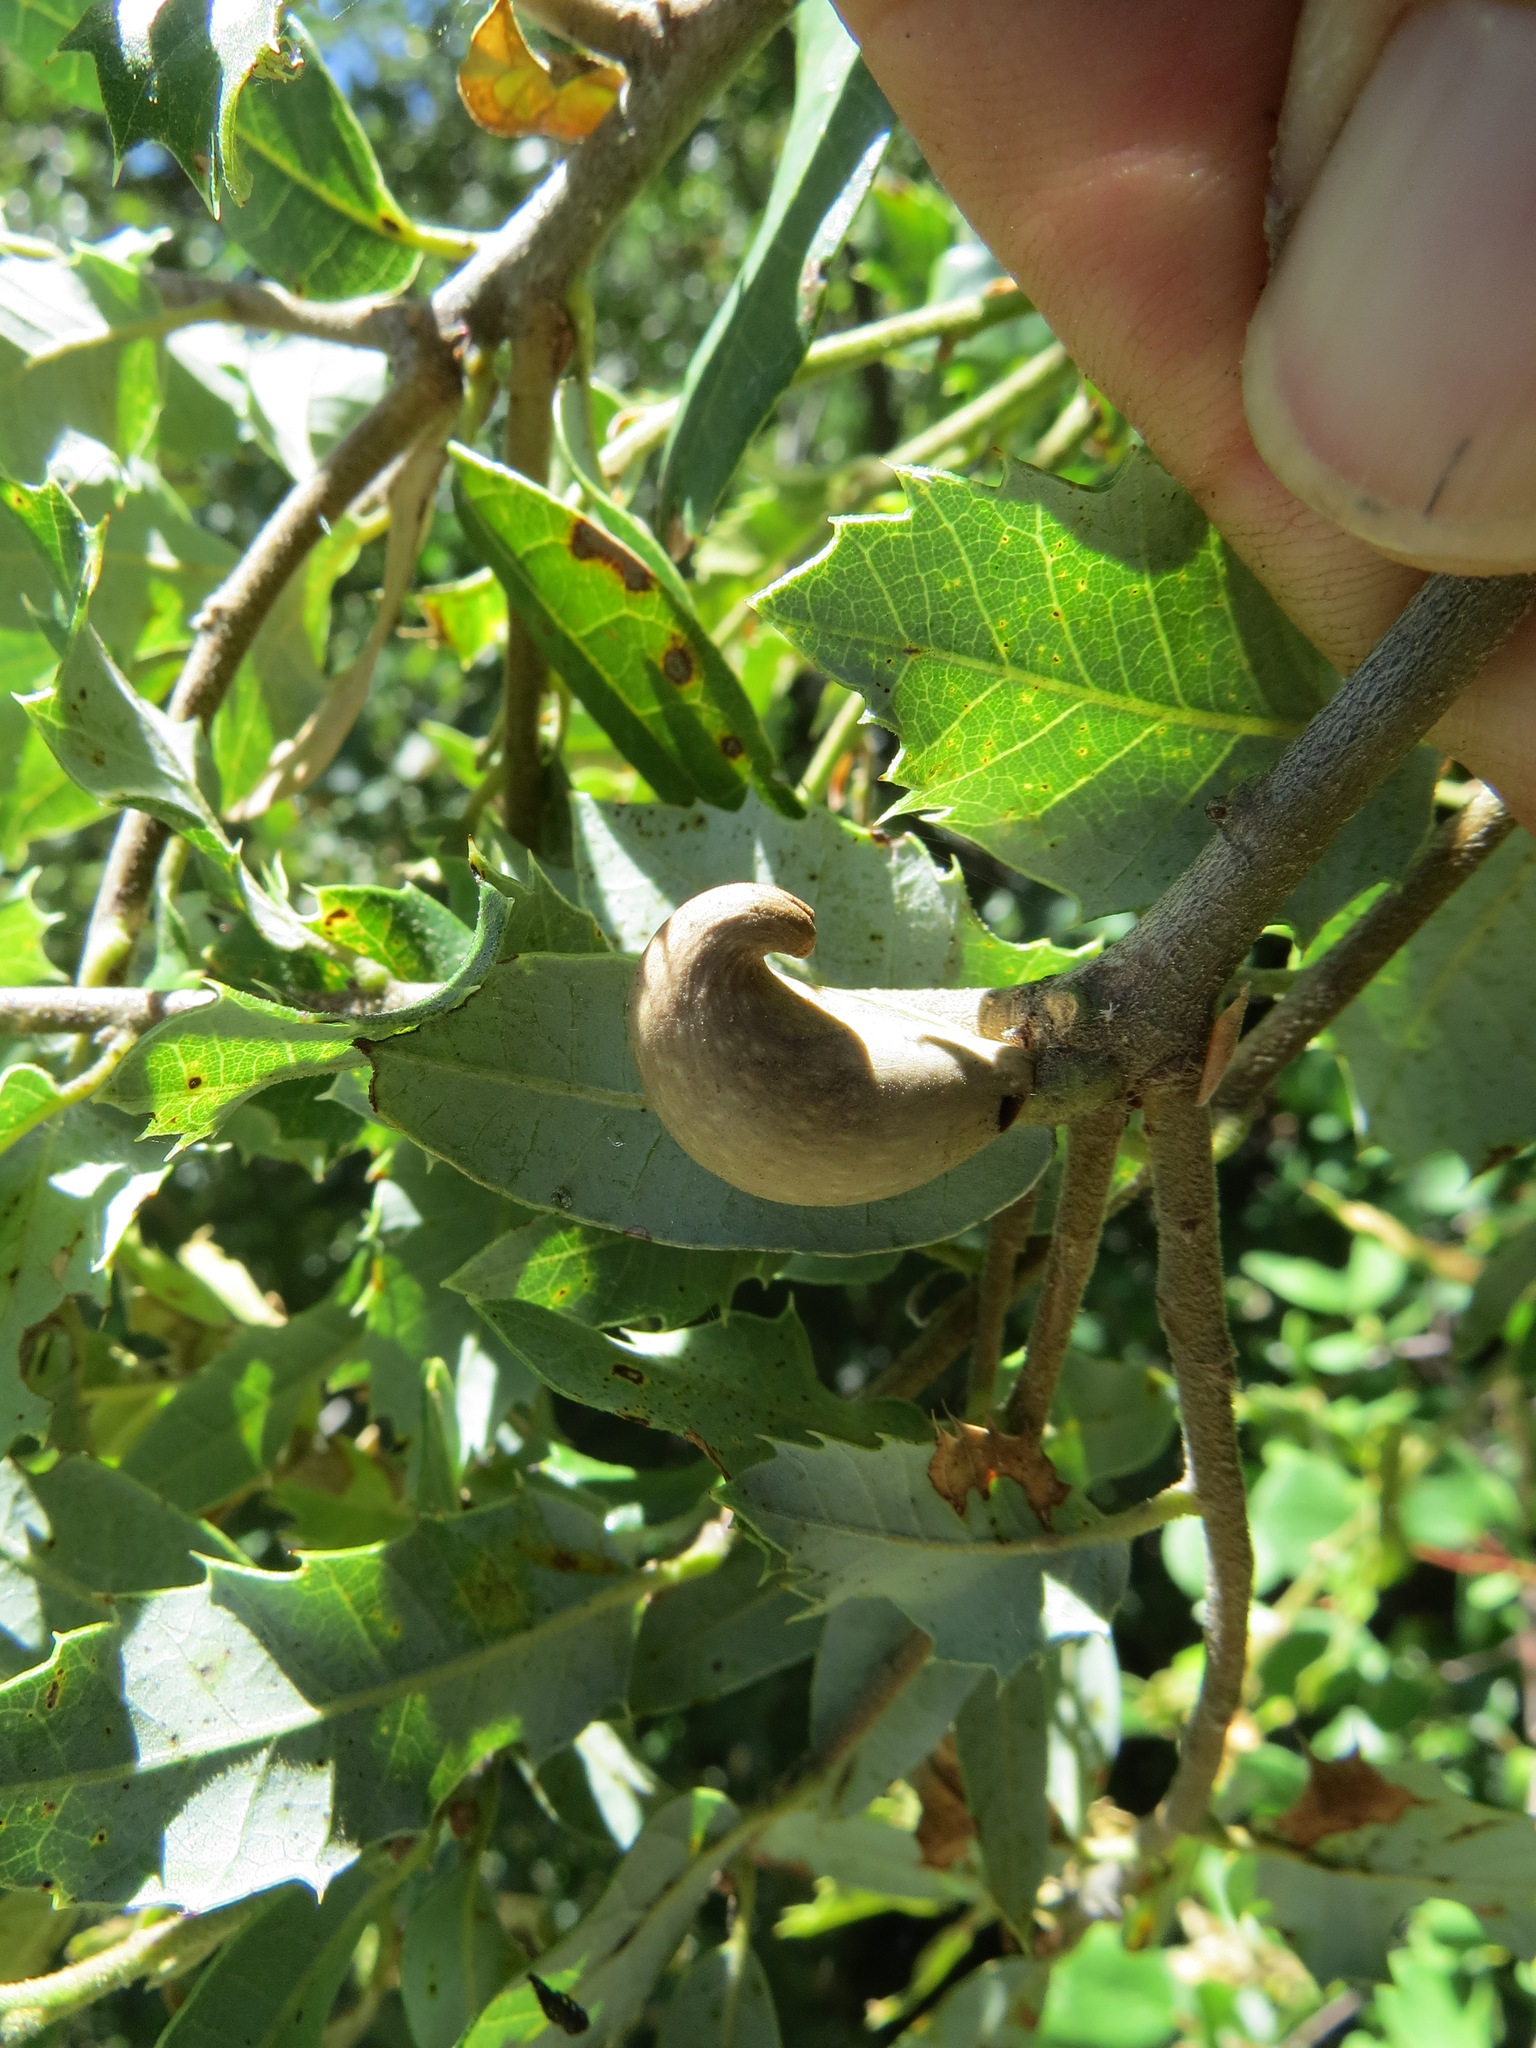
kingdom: Animalia
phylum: Arthropoda
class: Insecta
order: Hymenoptera
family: Cynipidae
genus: Heteroecus
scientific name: Heteroecus pacificus
